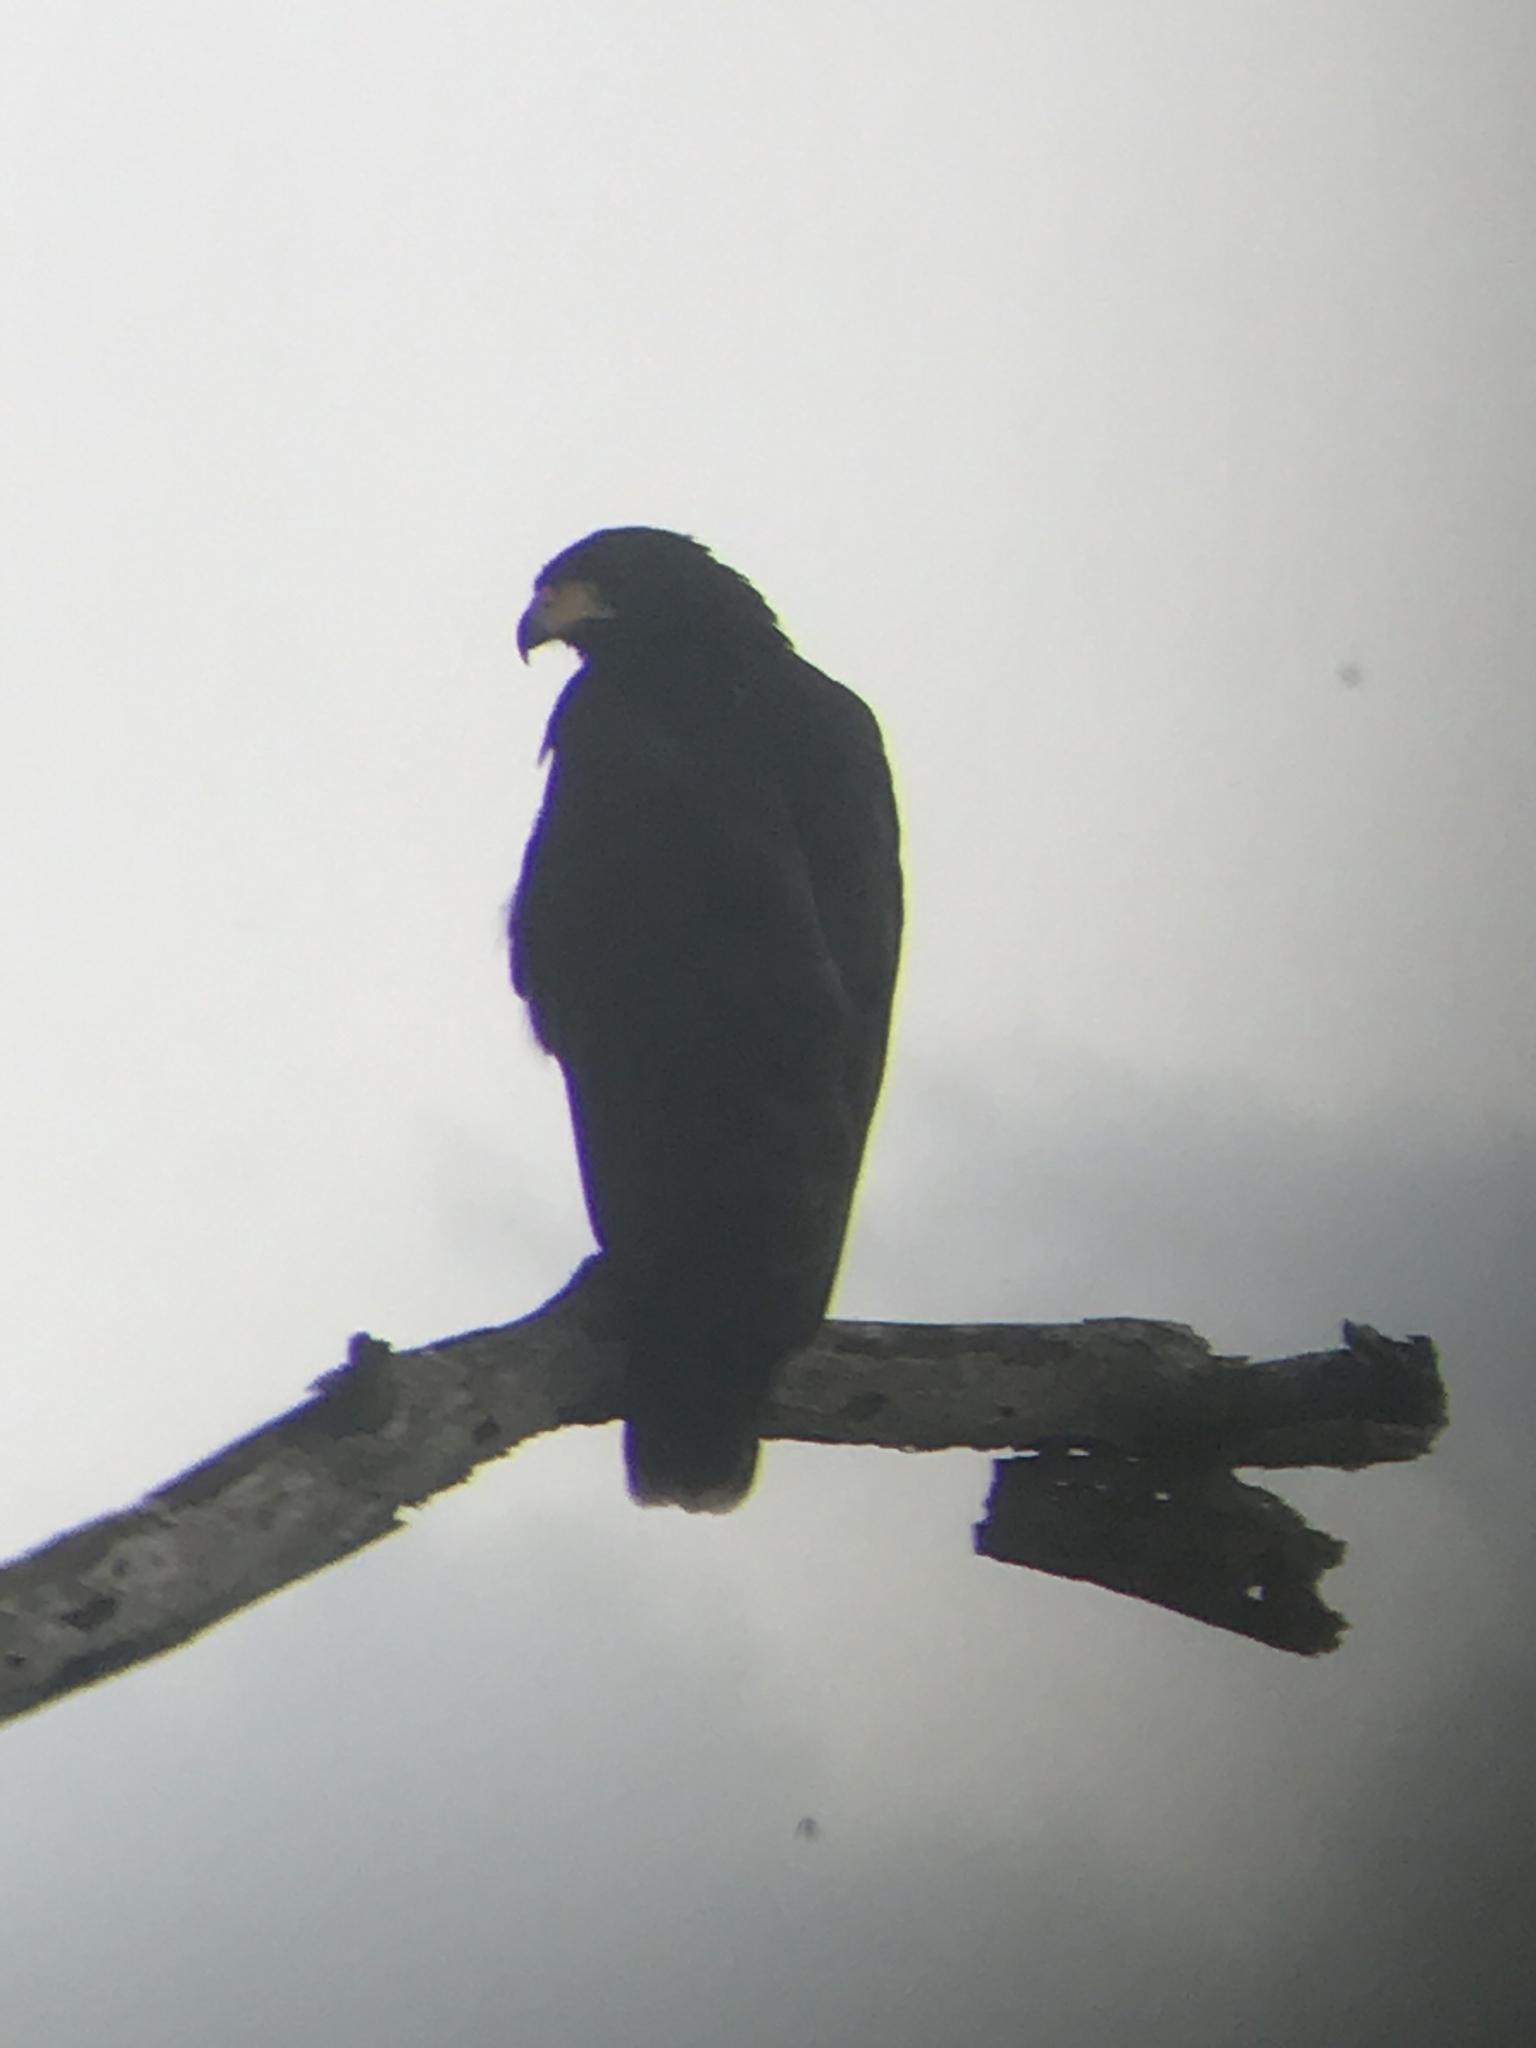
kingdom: Animalia
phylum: Chordata
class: Aves
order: Accipitriformes
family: Accipitridae
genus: Buteogallus
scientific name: Buteogallus anthracinus
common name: Common black hawk
